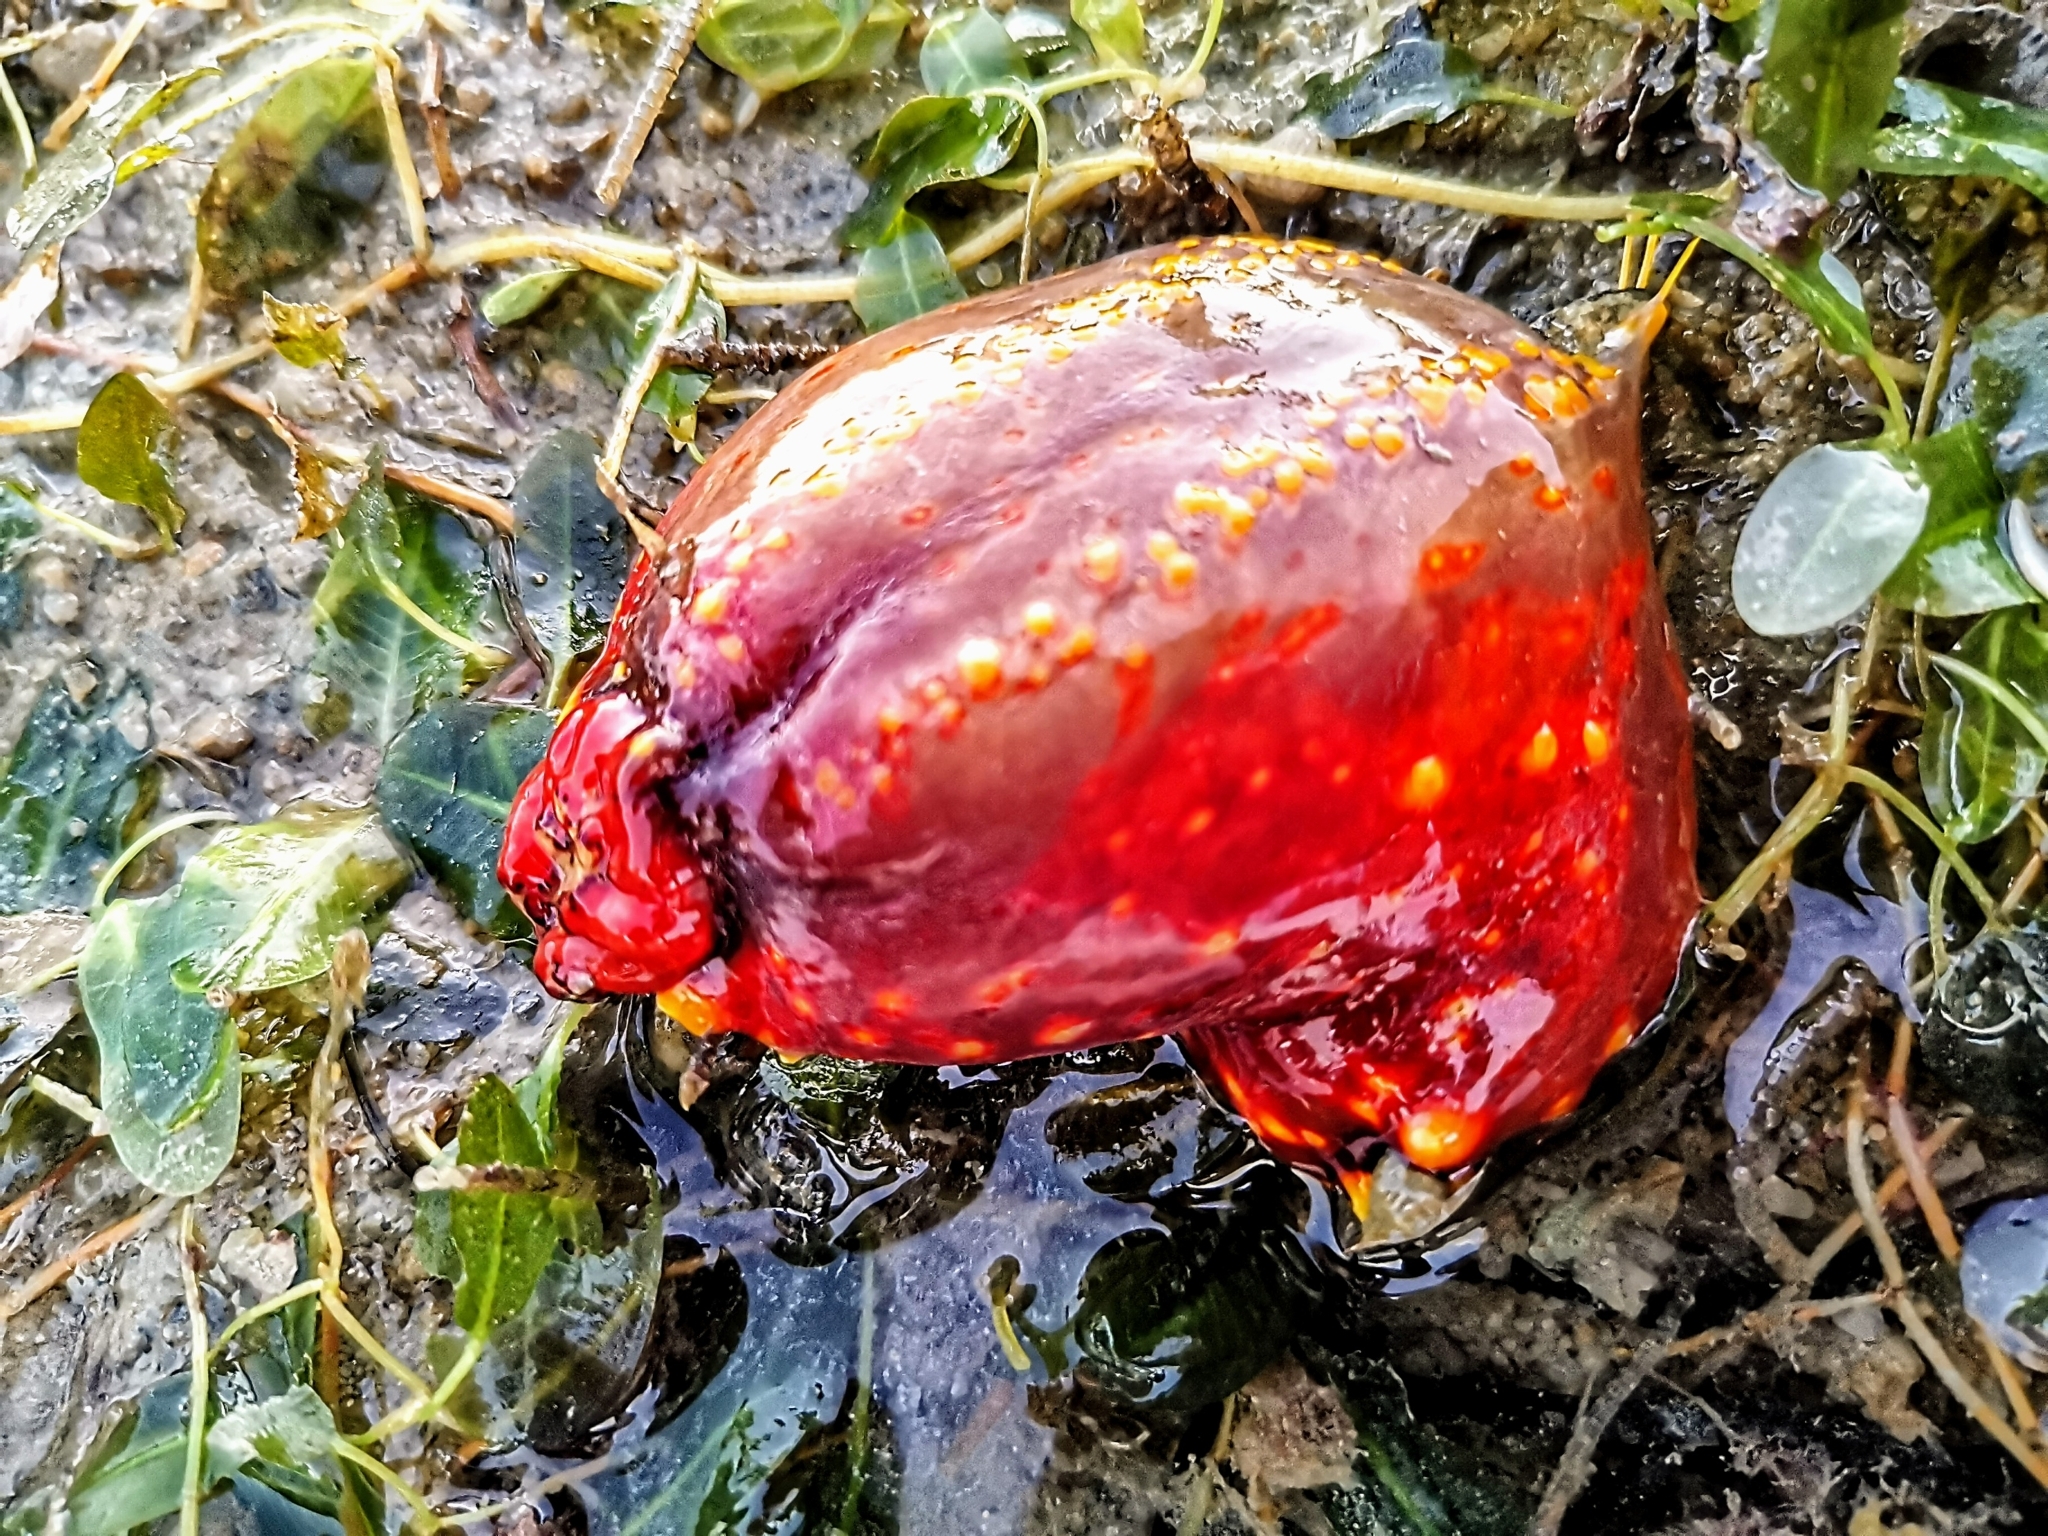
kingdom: Animalia
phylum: Echinodermata
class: Holothuroidea
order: Dendrochirotida
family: Cucumariidae
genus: Pseudocolochirus
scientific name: Pseudocolochirus violaceus
